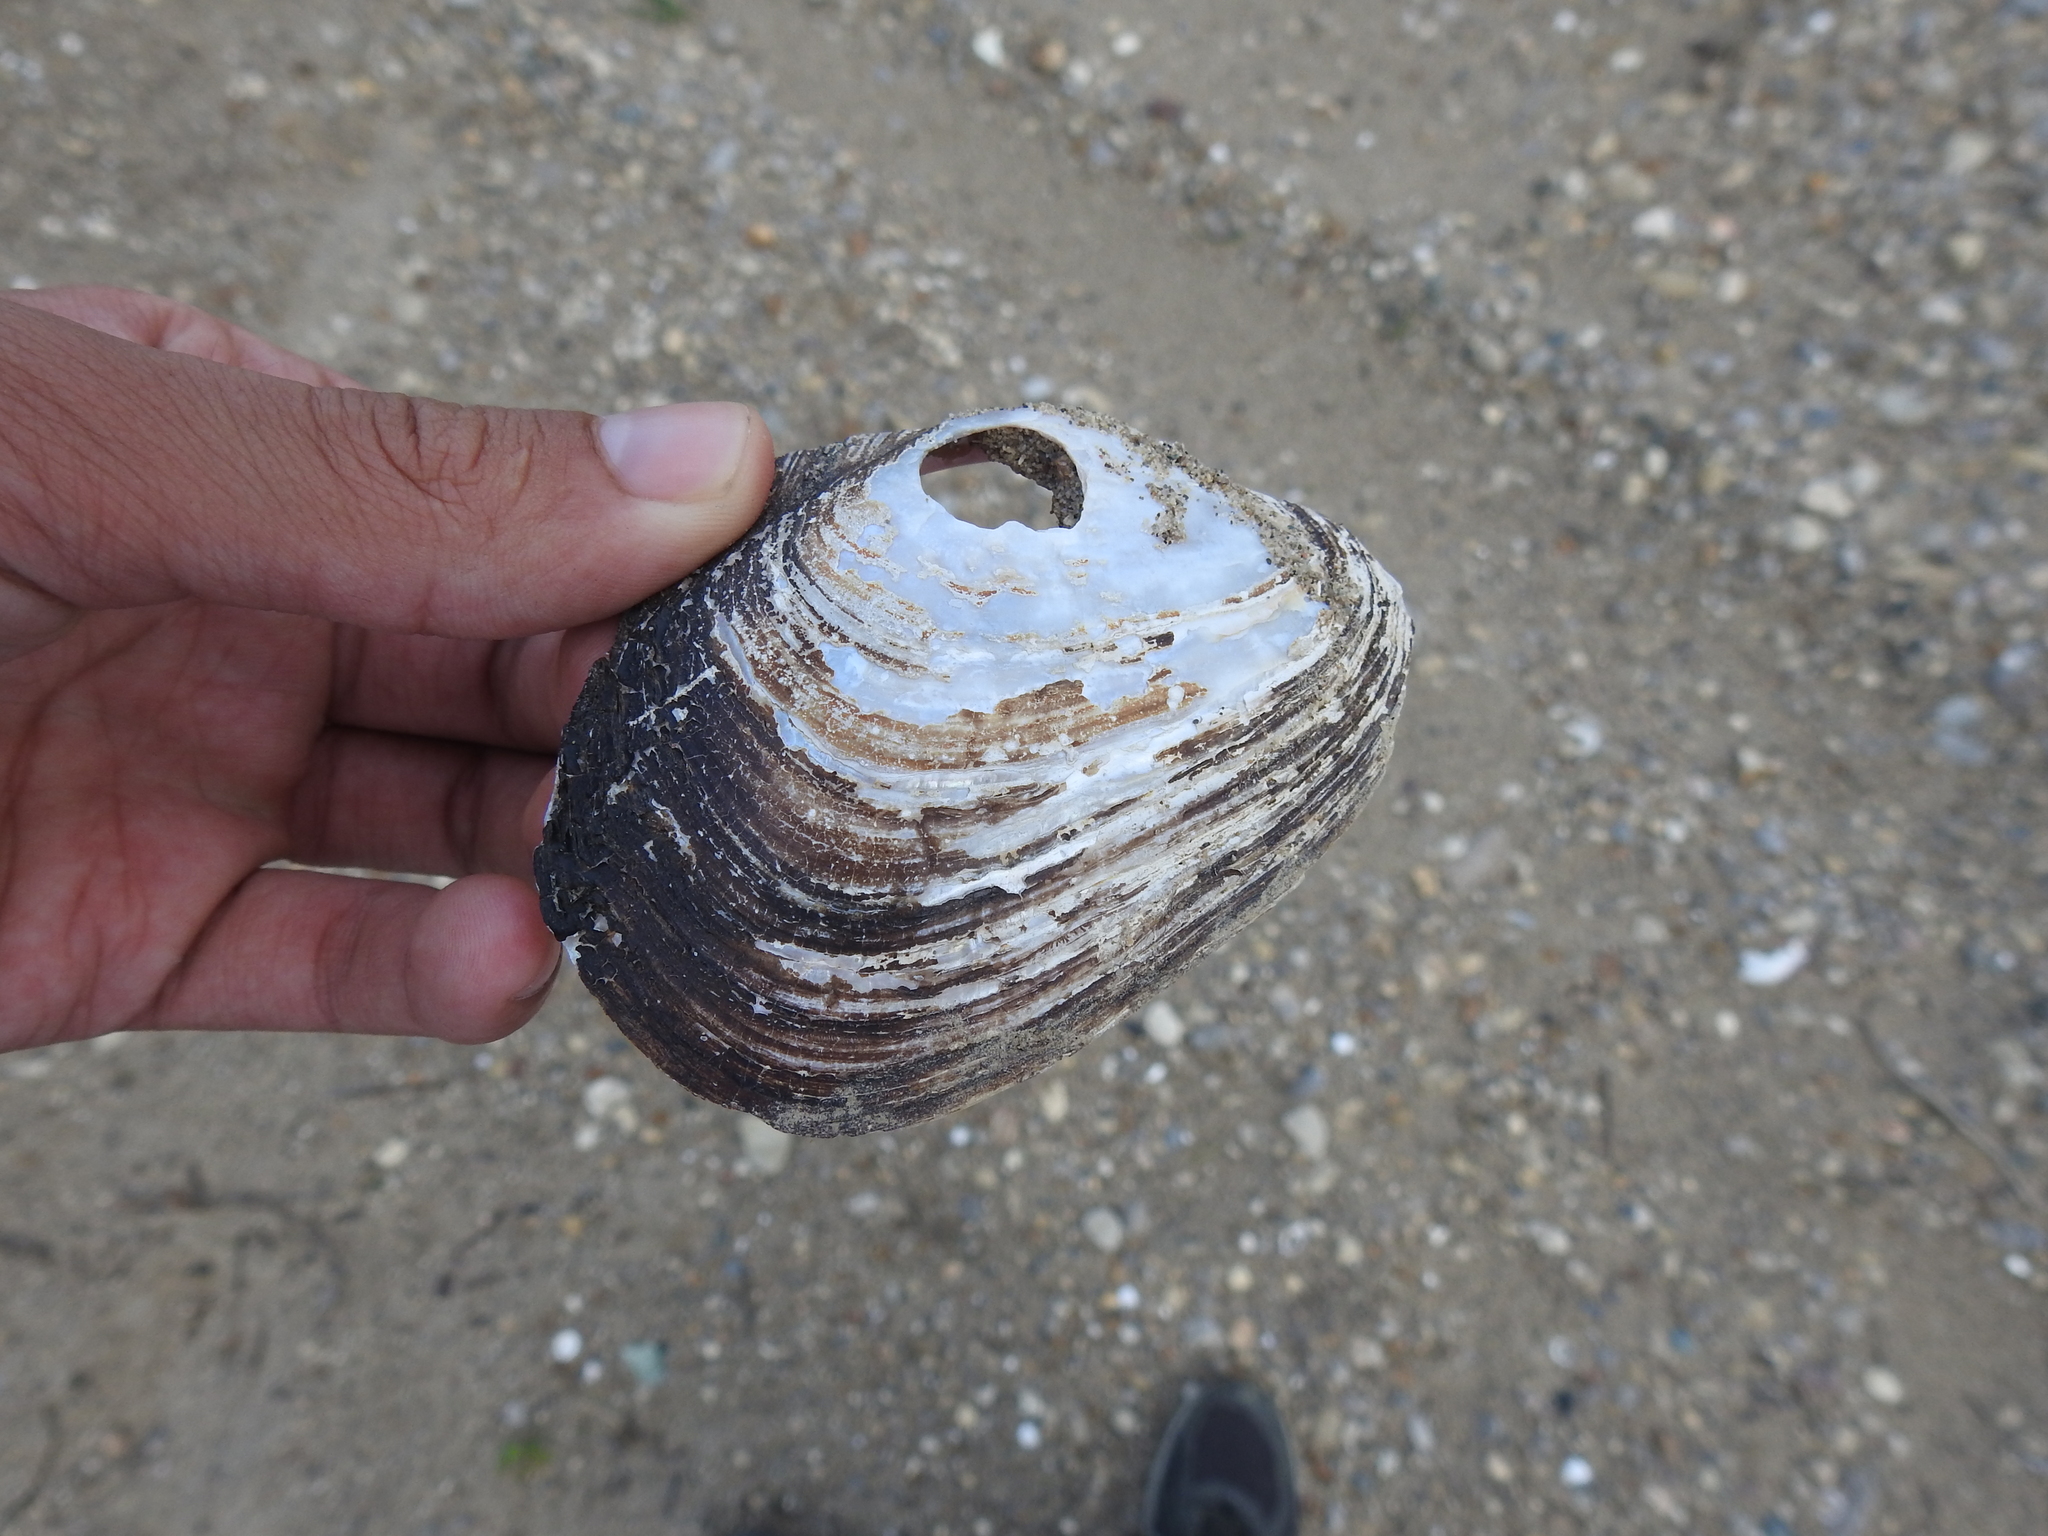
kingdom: Animalia
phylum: Mollusca
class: Bivalvia
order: Unionida
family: Unionidae
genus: Potamilus
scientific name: Potamilus alatus
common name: Pink heelsplitter
